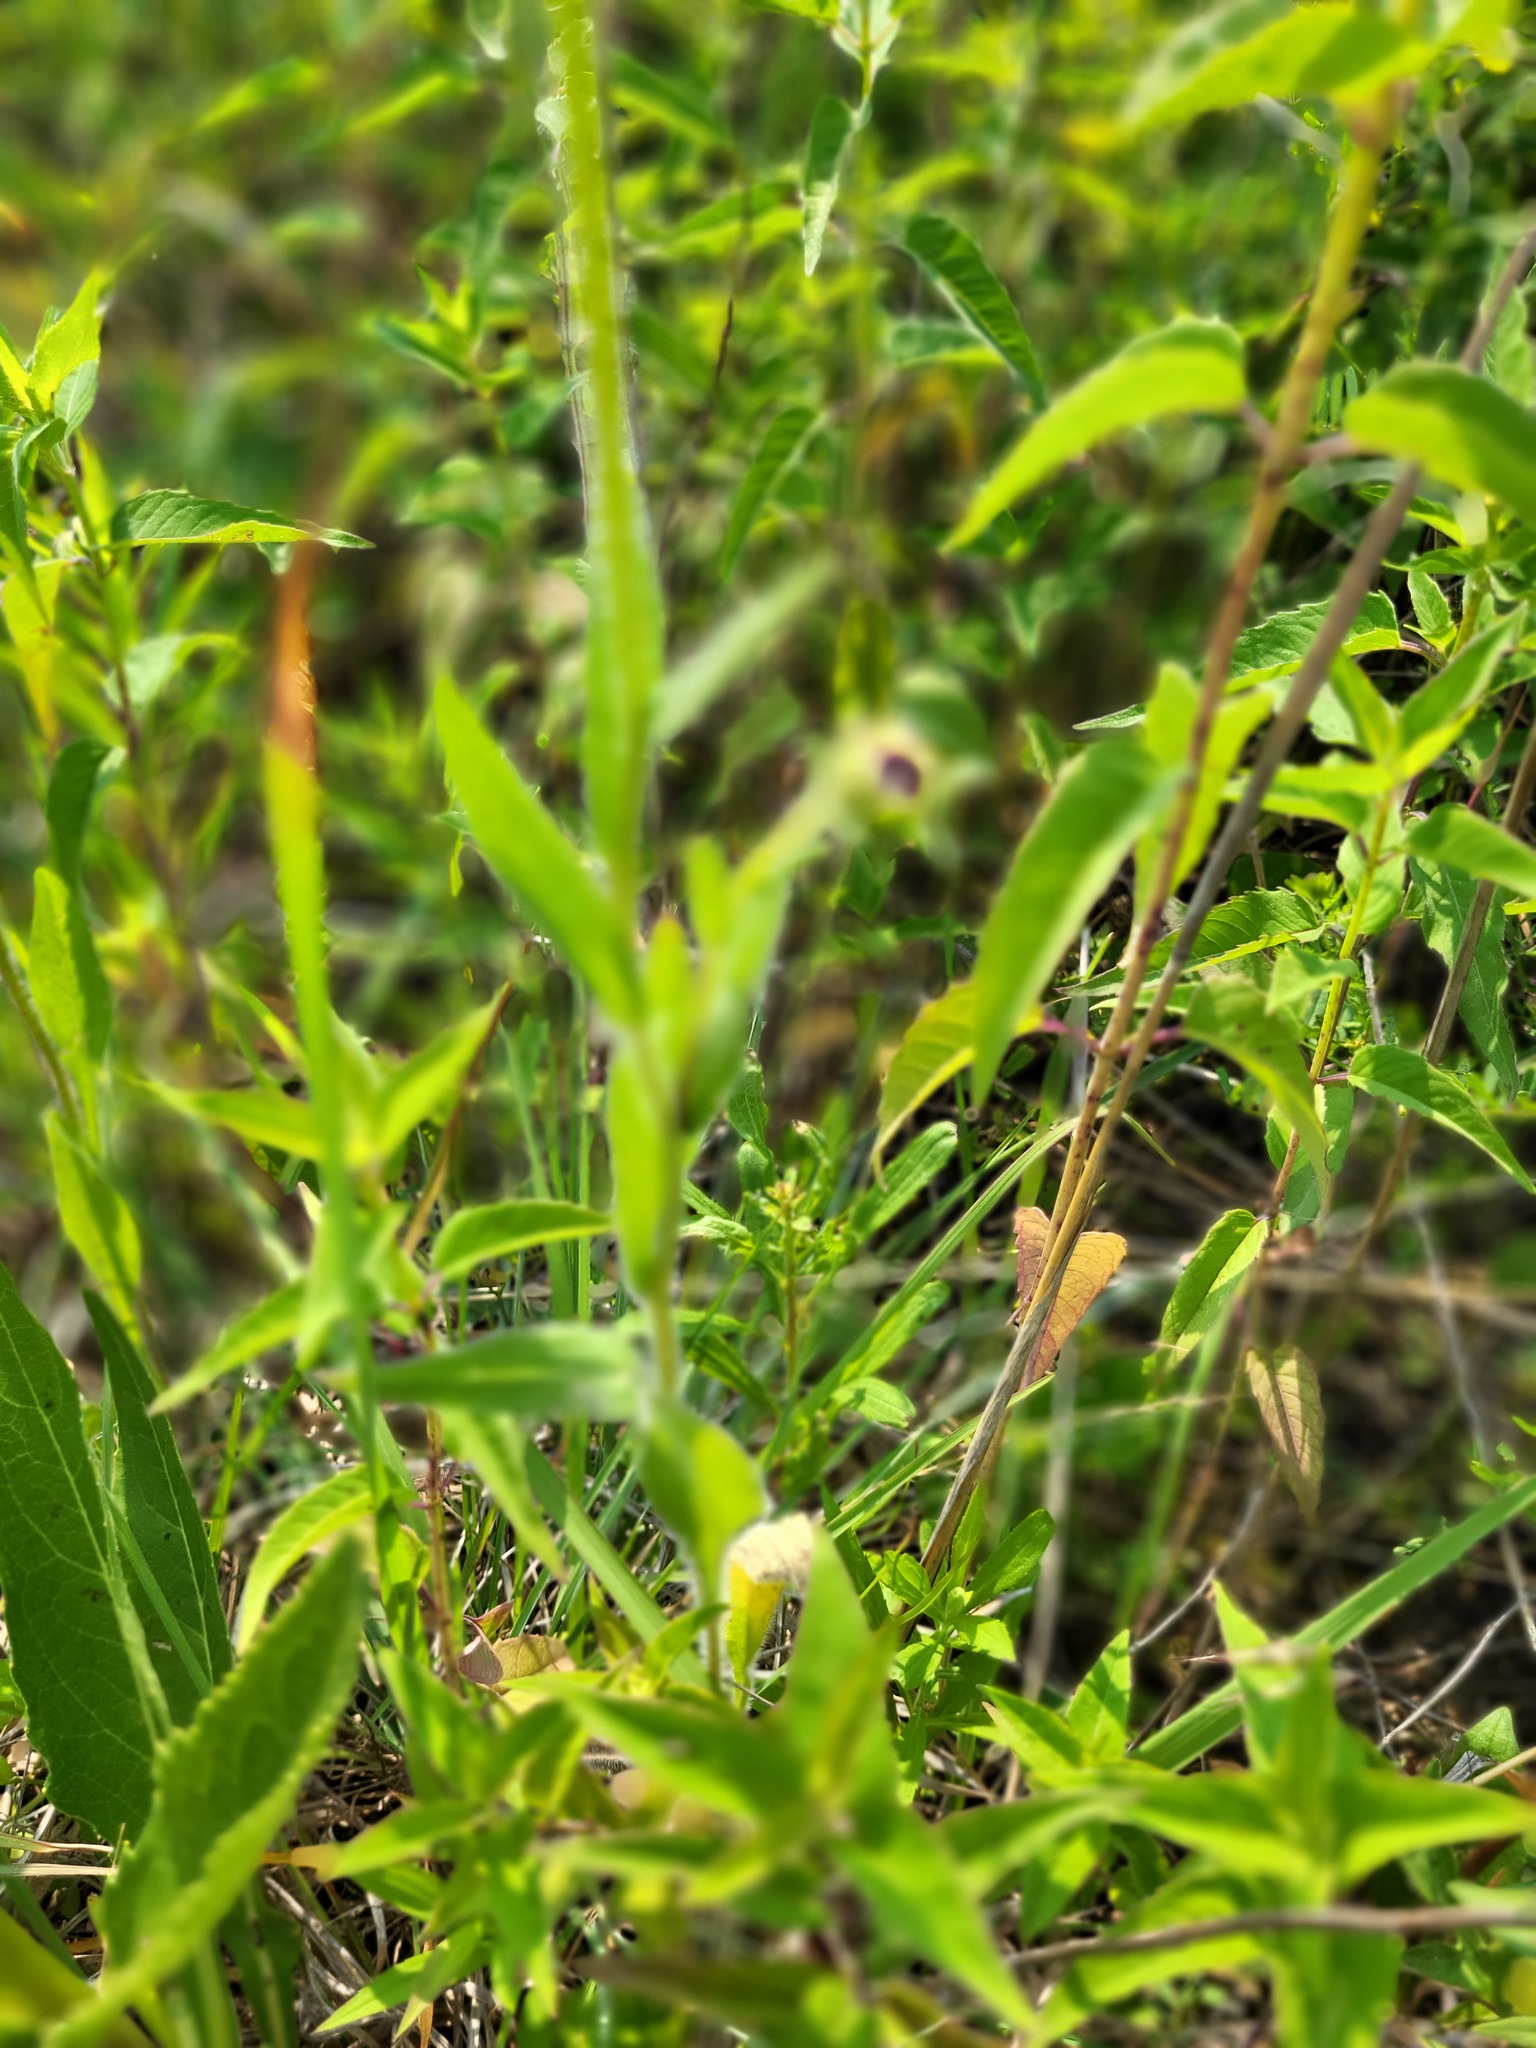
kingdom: Plantae
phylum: Tracheophyta
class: Magnoliopsida
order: Asterales
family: Asteraceae
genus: Rudbeckia
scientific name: Rudbeckia hirta
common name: Black-eyed-susan
